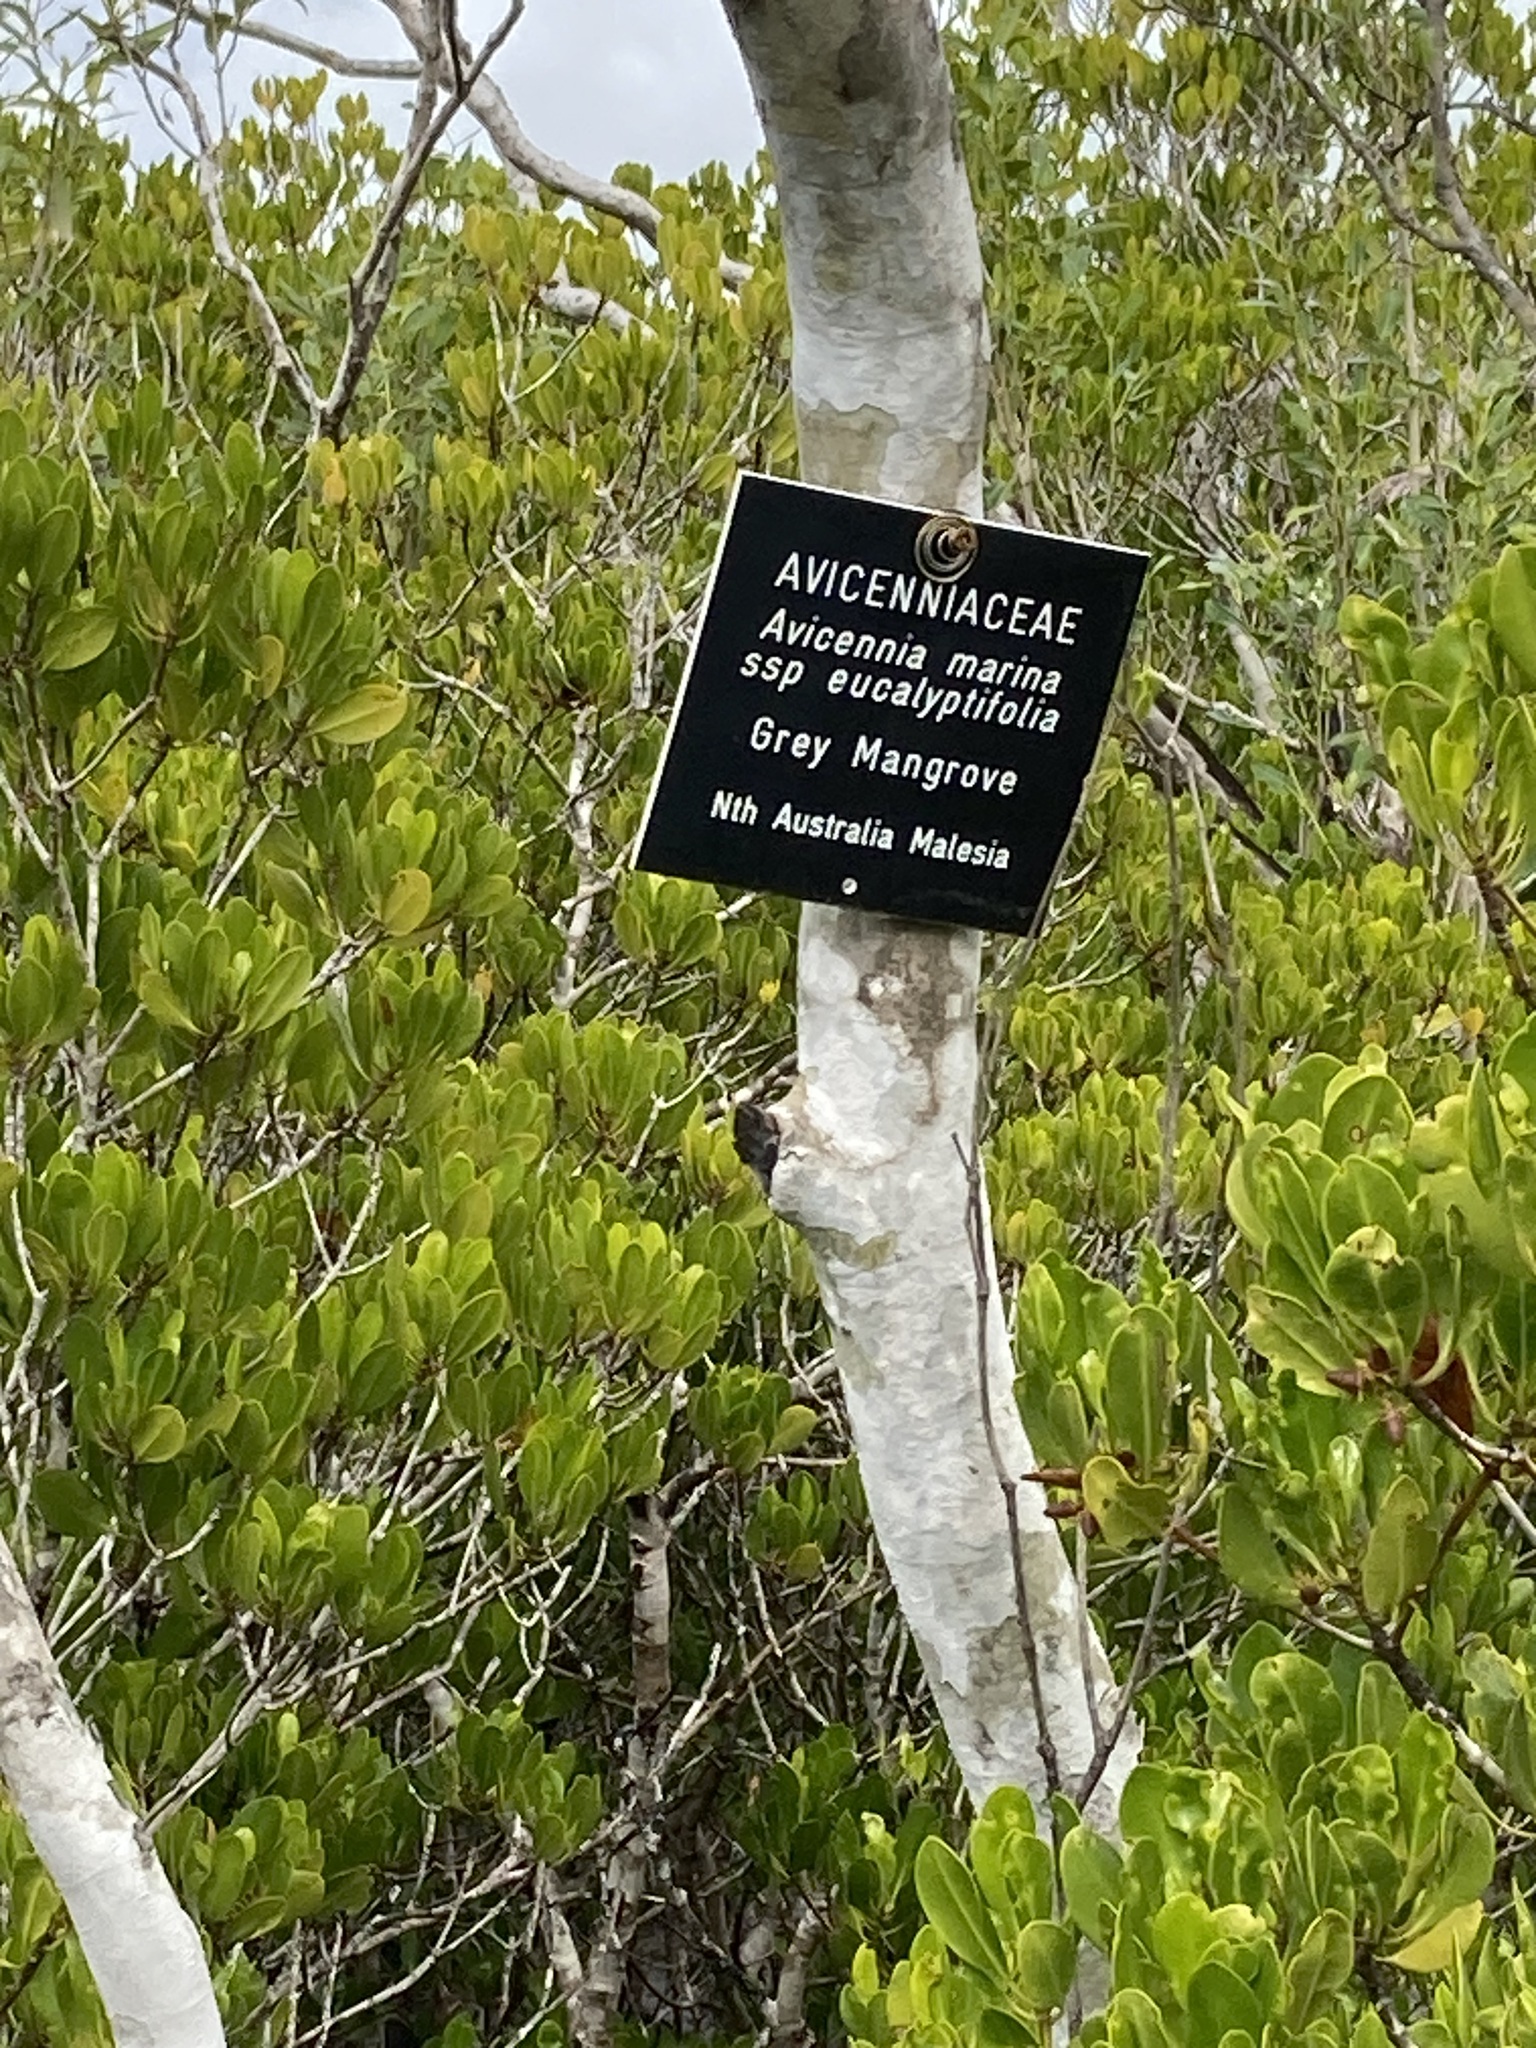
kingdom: Plantae
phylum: Tracheophyta
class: Magnoliopsida
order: Lamiales
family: Acanthaceae
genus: Avicennia
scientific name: Avicennia marina
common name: Gray mangrove
